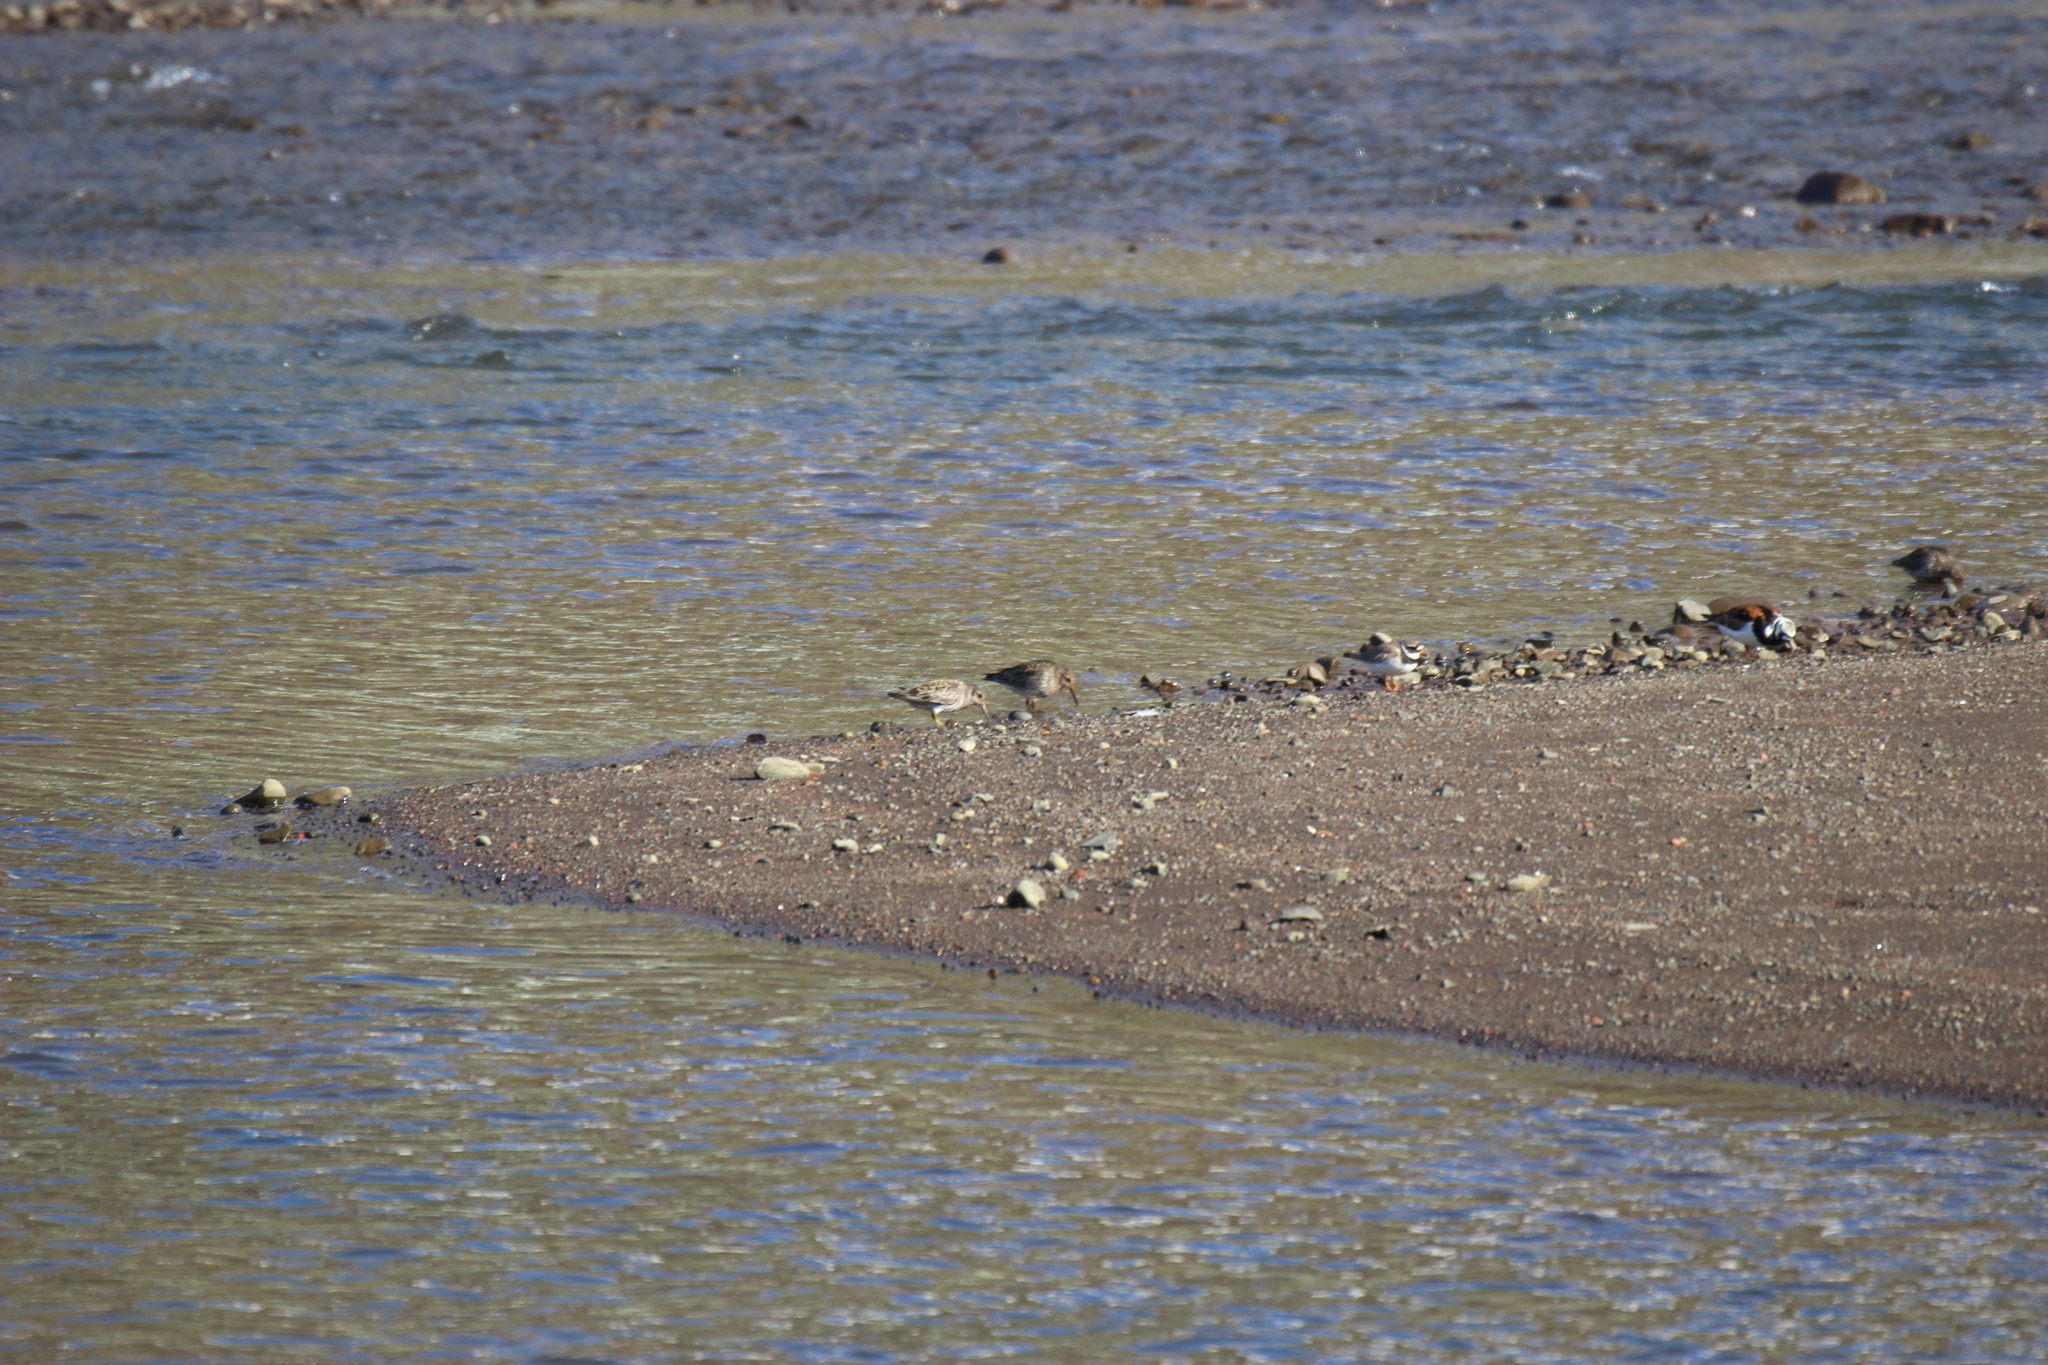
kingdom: Animalia
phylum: Chordata
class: Aves
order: Charadriiformes
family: Scolopacidae
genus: Calidris
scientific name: Calidris maritima
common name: Purple sandpiper
